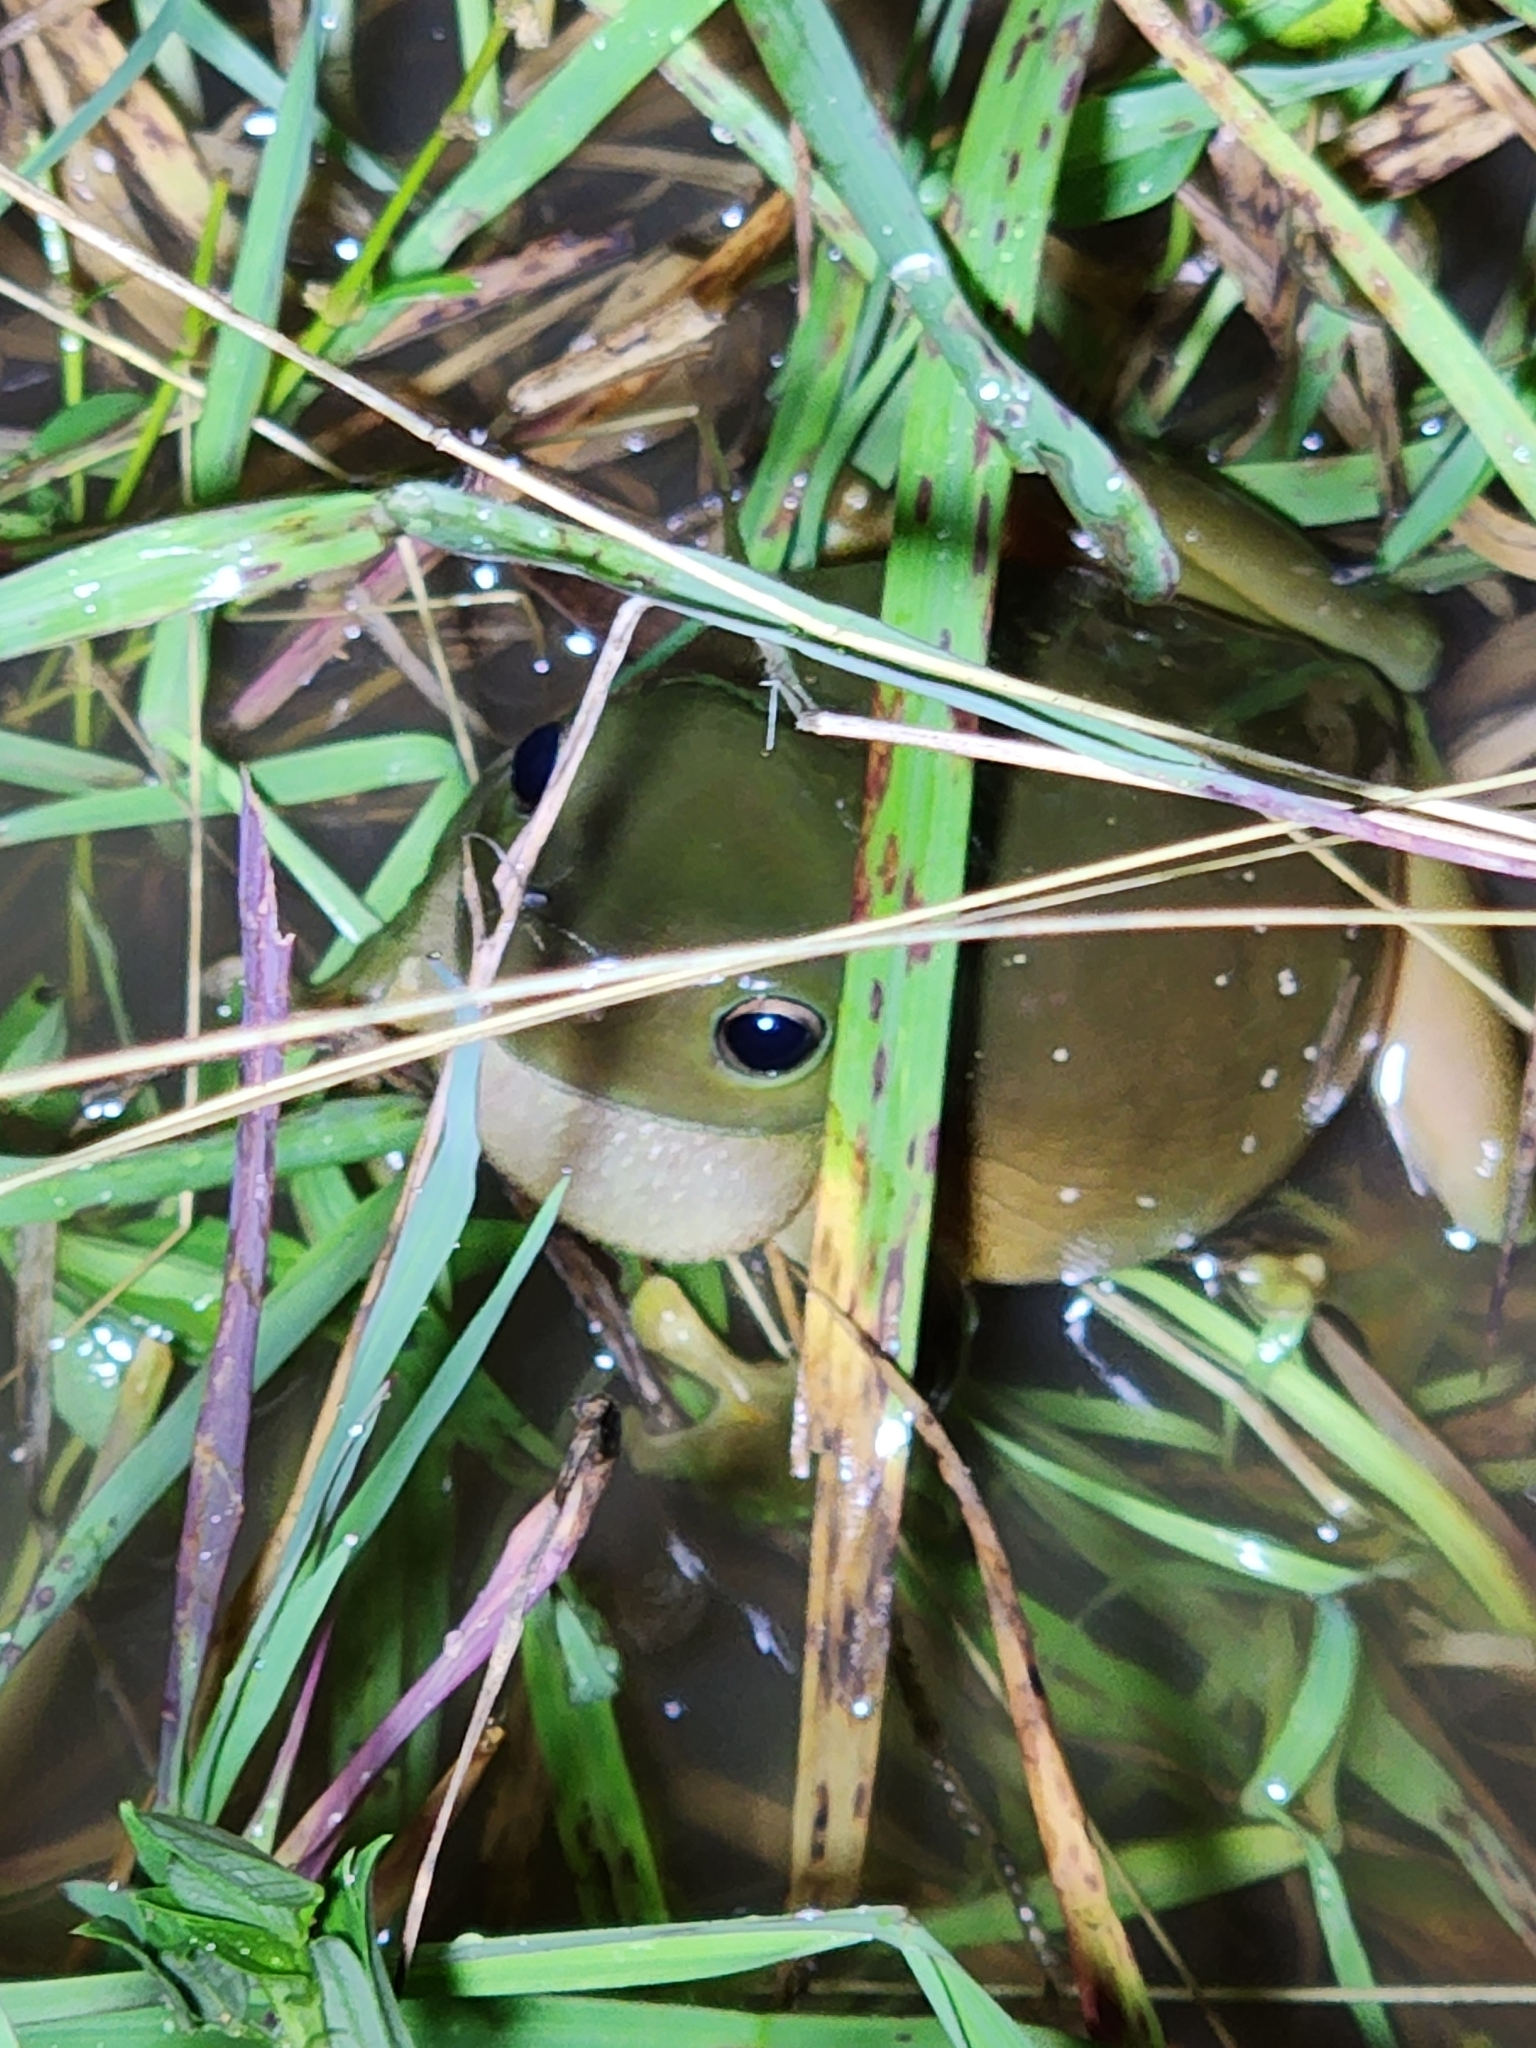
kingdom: Animalia
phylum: Chordata
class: Amphibia
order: Anura
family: Pelodryadidae
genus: Ranoidea
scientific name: Ranoidea caerulea
